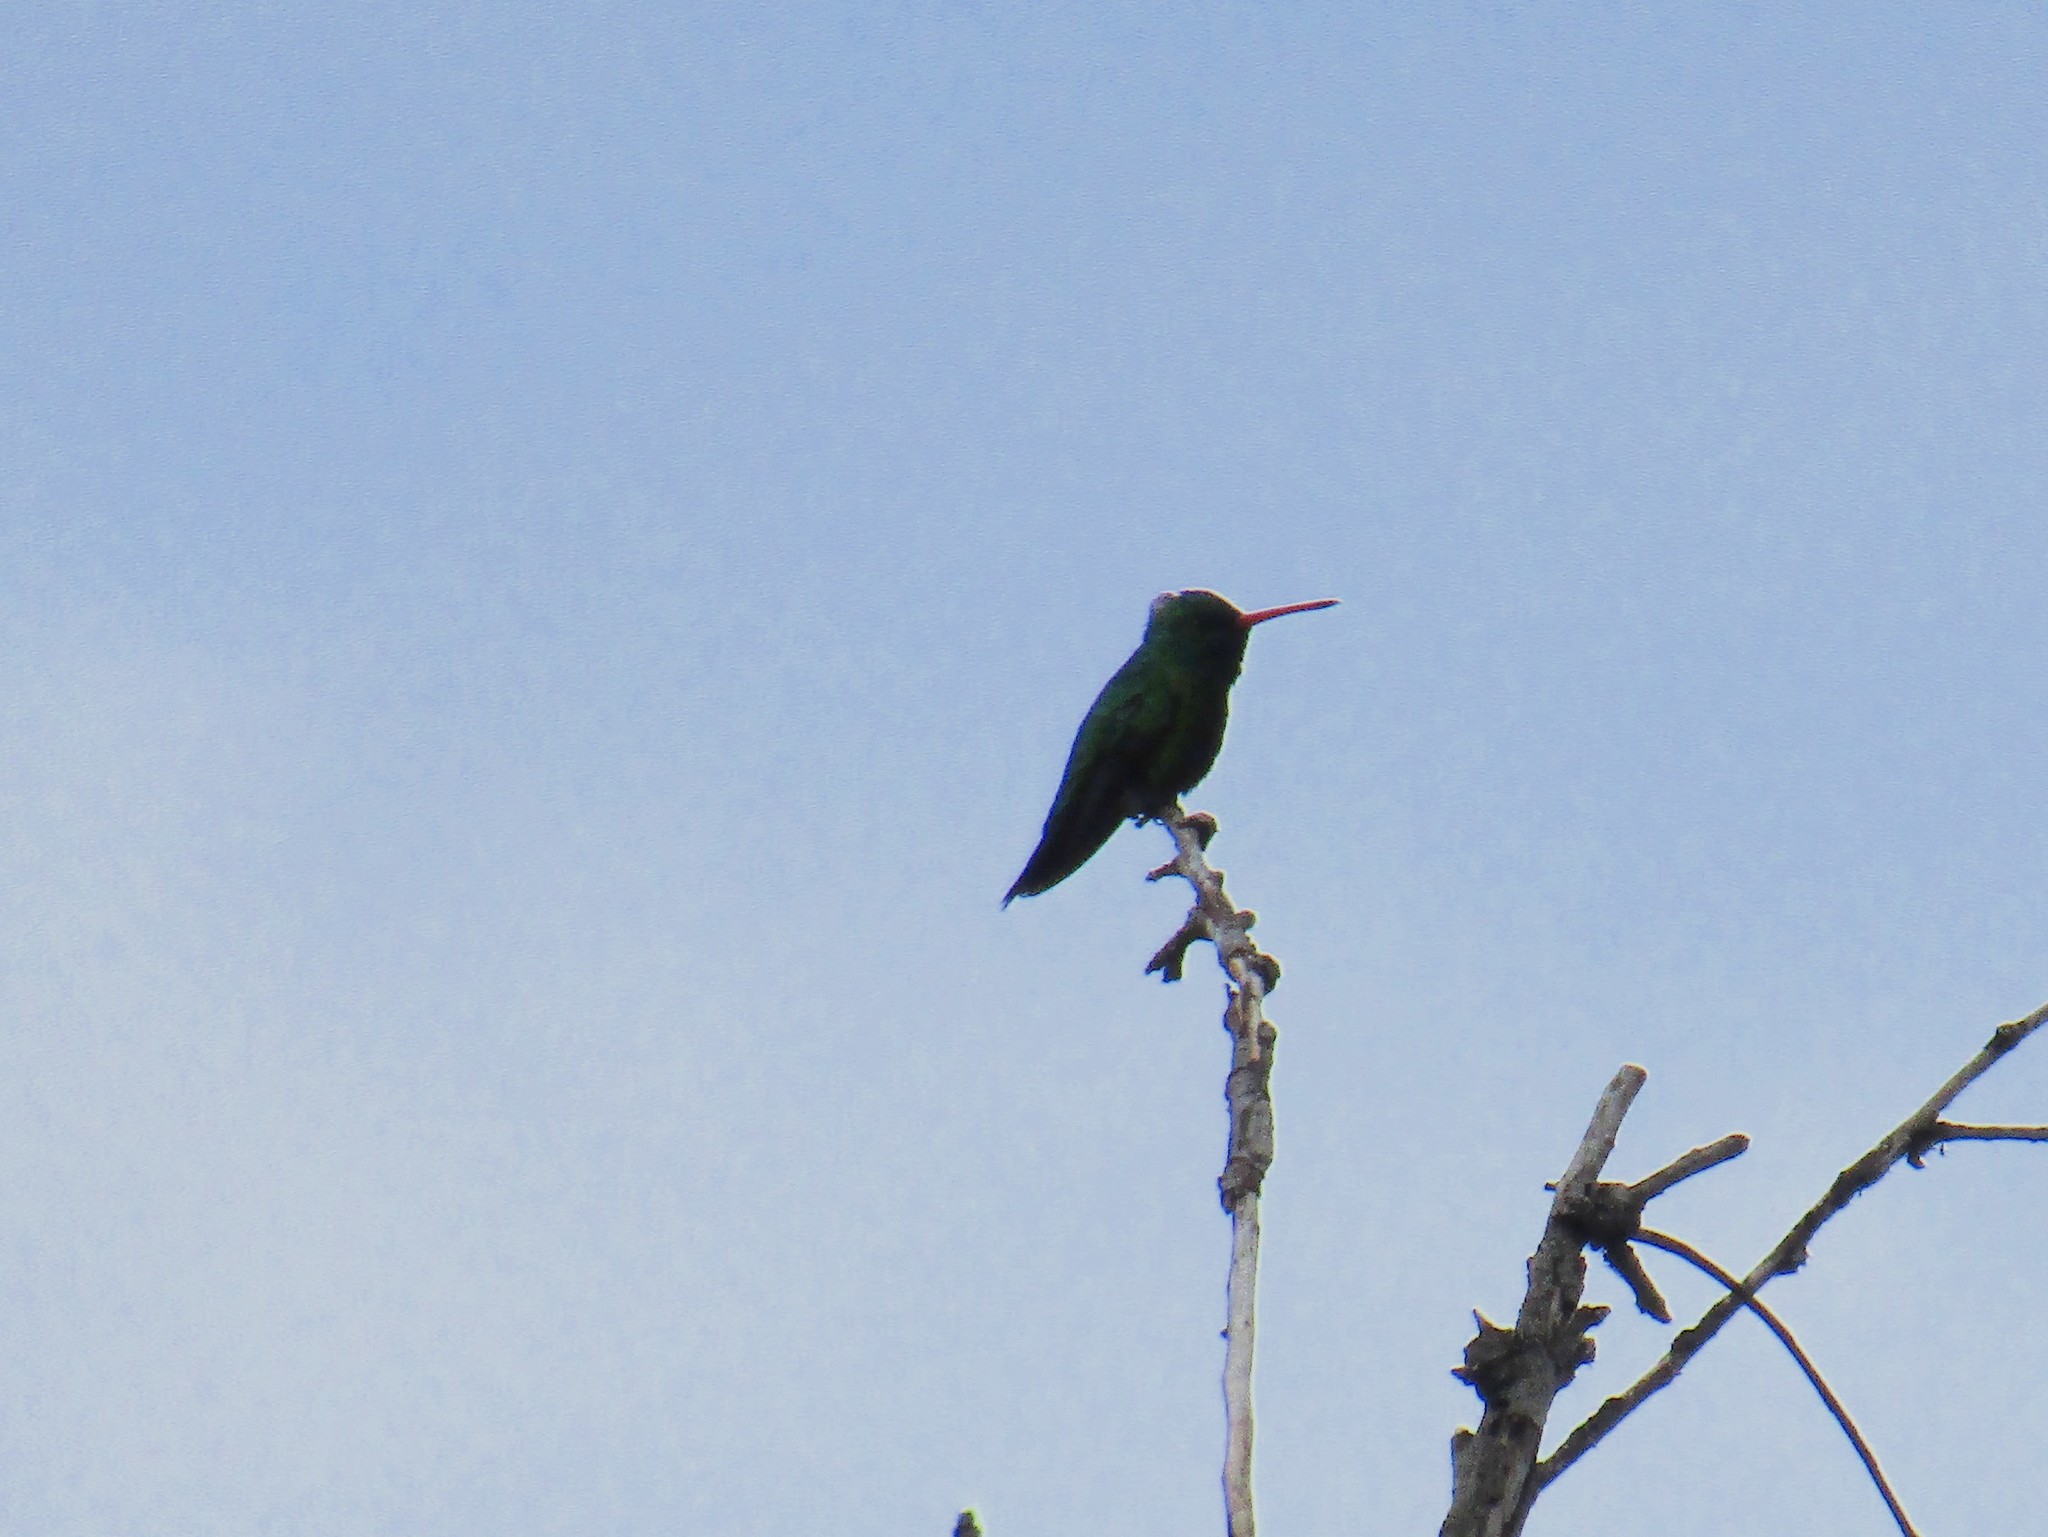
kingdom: Animalia
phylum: Chordata
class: Aves
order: Apodiformes
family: Trochilidae
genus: Chlorostilbon
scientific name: Chlorostilbon lucidus
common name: Glittering-bellied emerald
